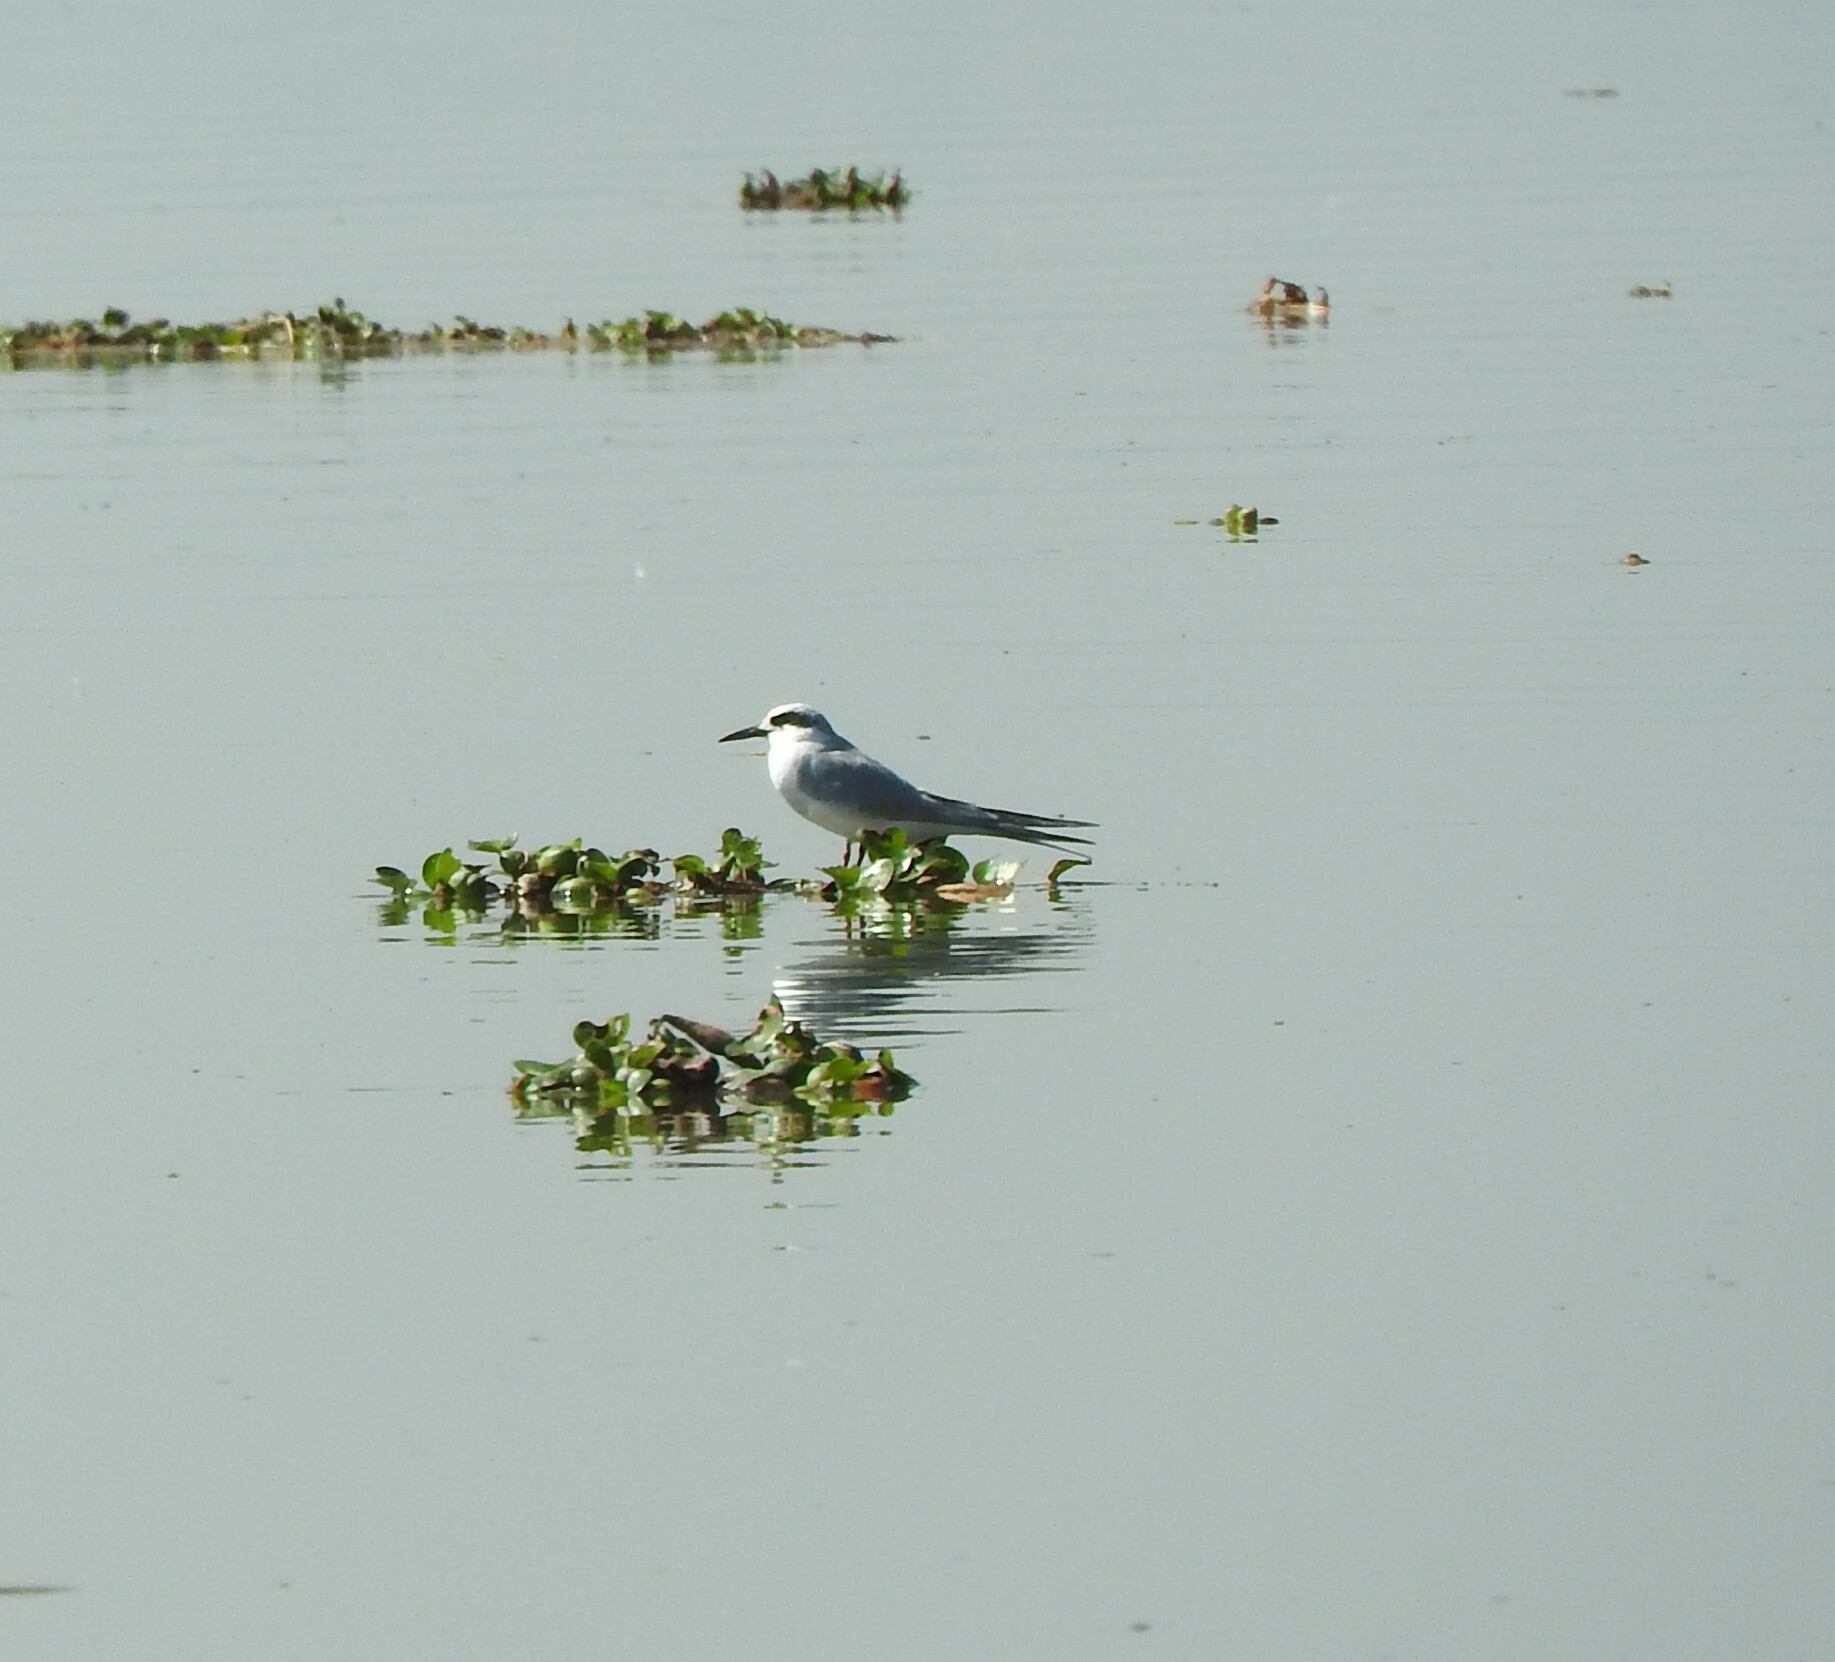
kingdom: Animalia
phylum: Chordata
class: Aves
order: Charadriiformes
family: Laridae
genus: Sterna
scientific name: Sterna forsteri
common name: Forster's tern
